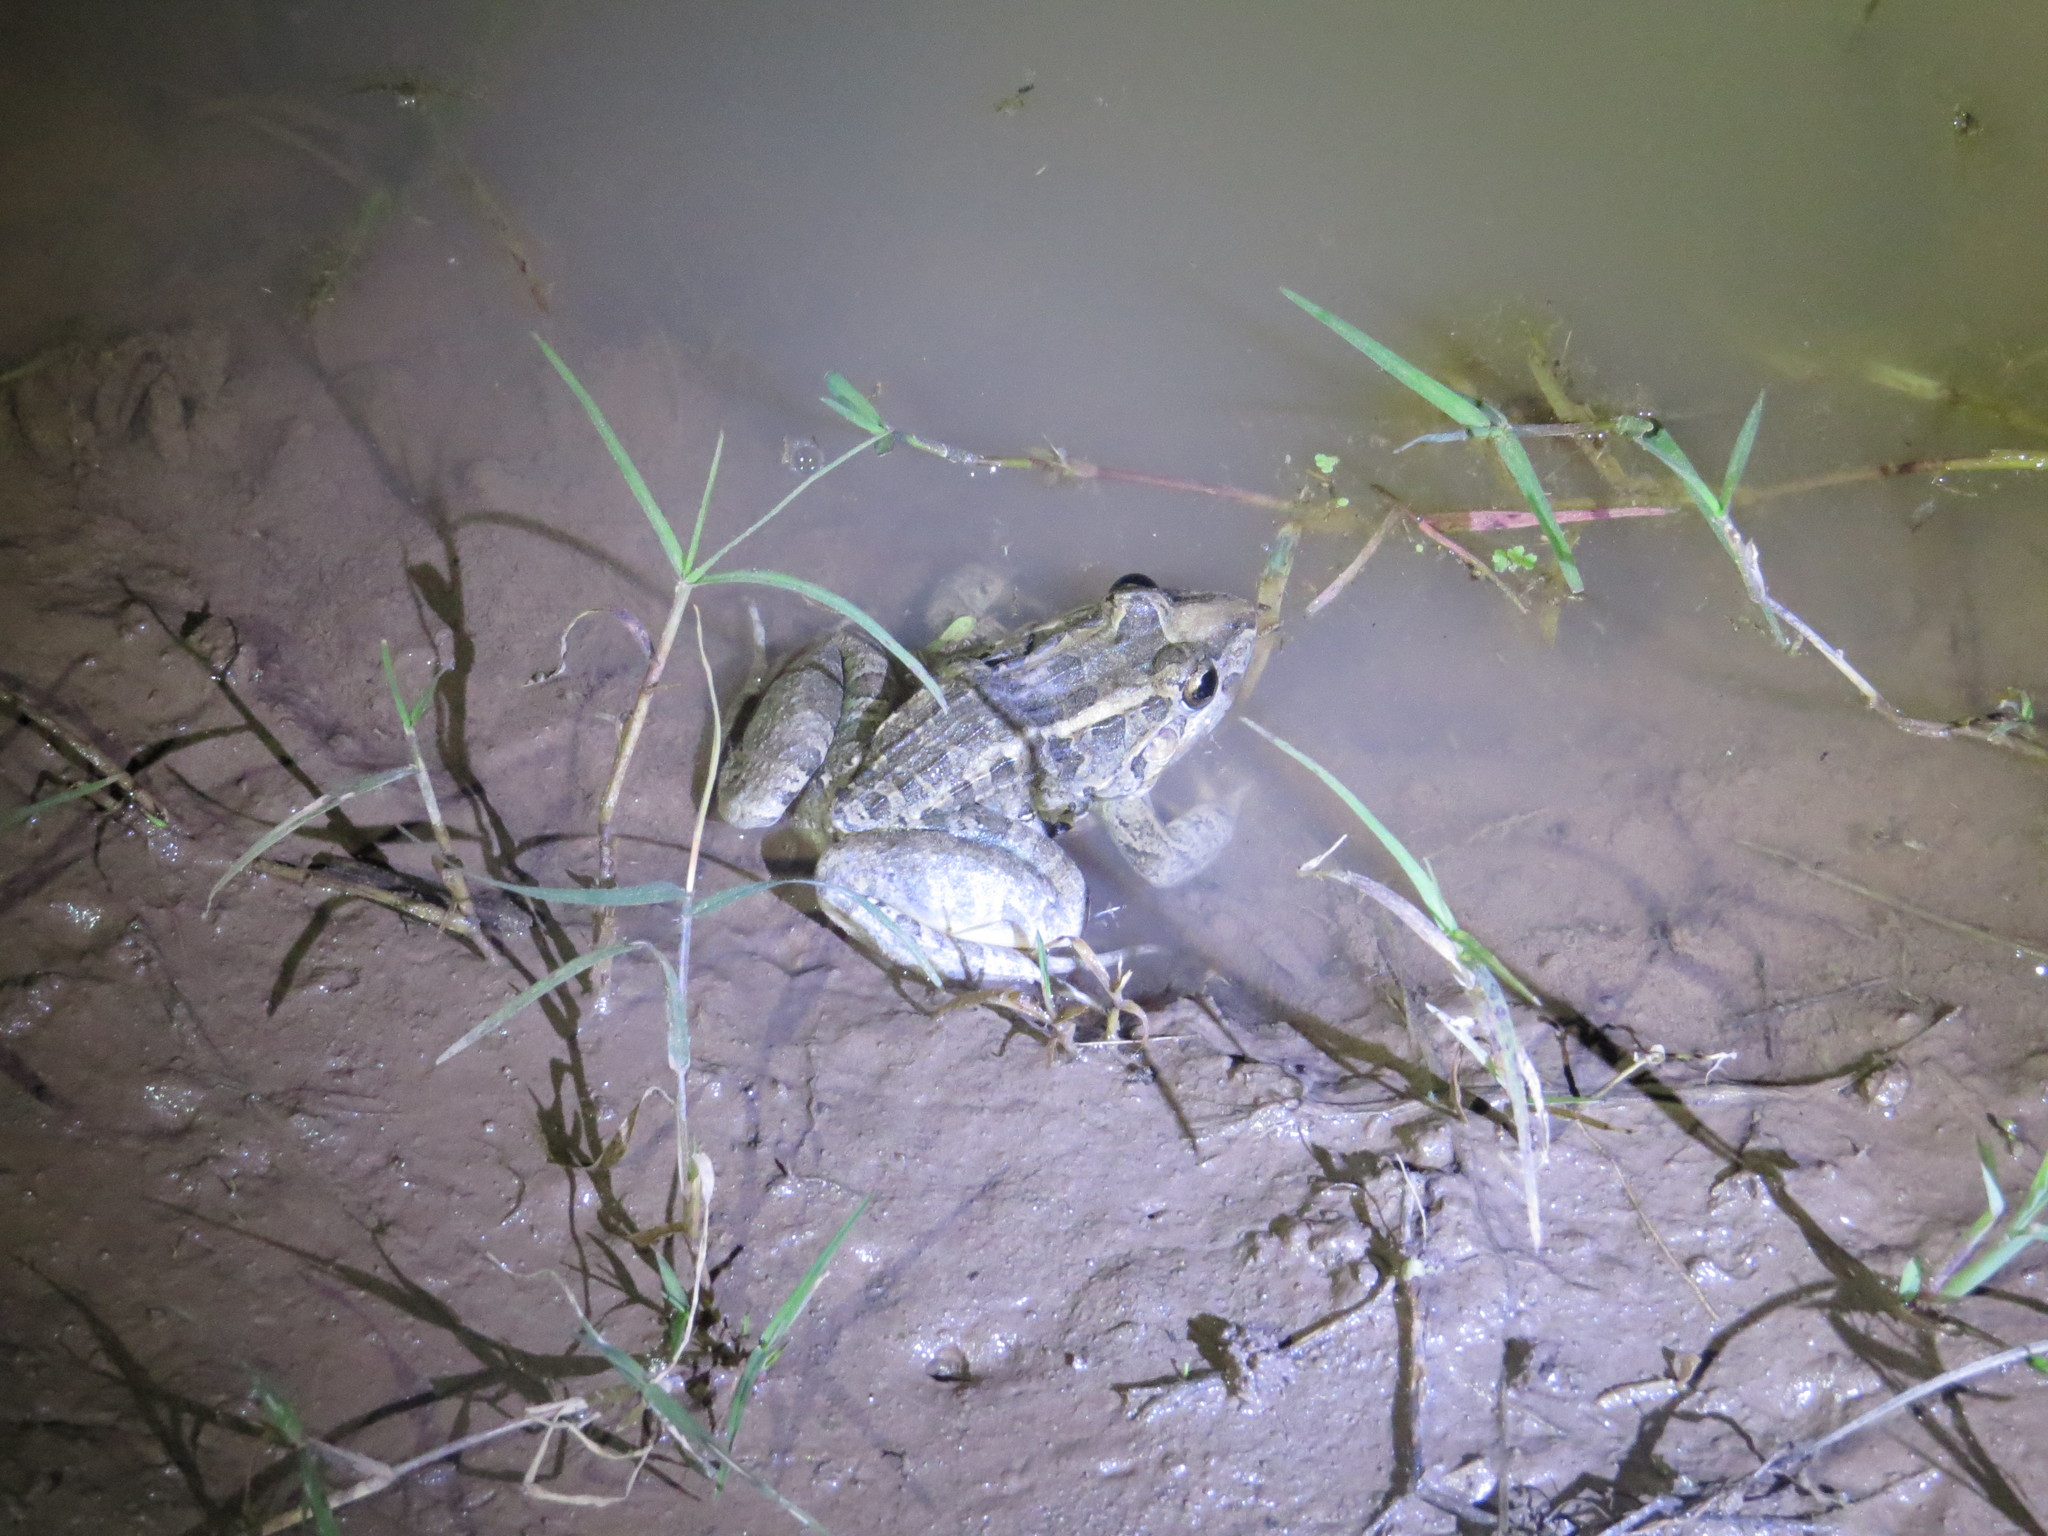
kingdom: Animalia
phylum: Chordata
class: Amphibia
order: Anura
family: Leptodactylidae
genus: Leptodactylus
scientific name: Leptodactylus macrosternum
